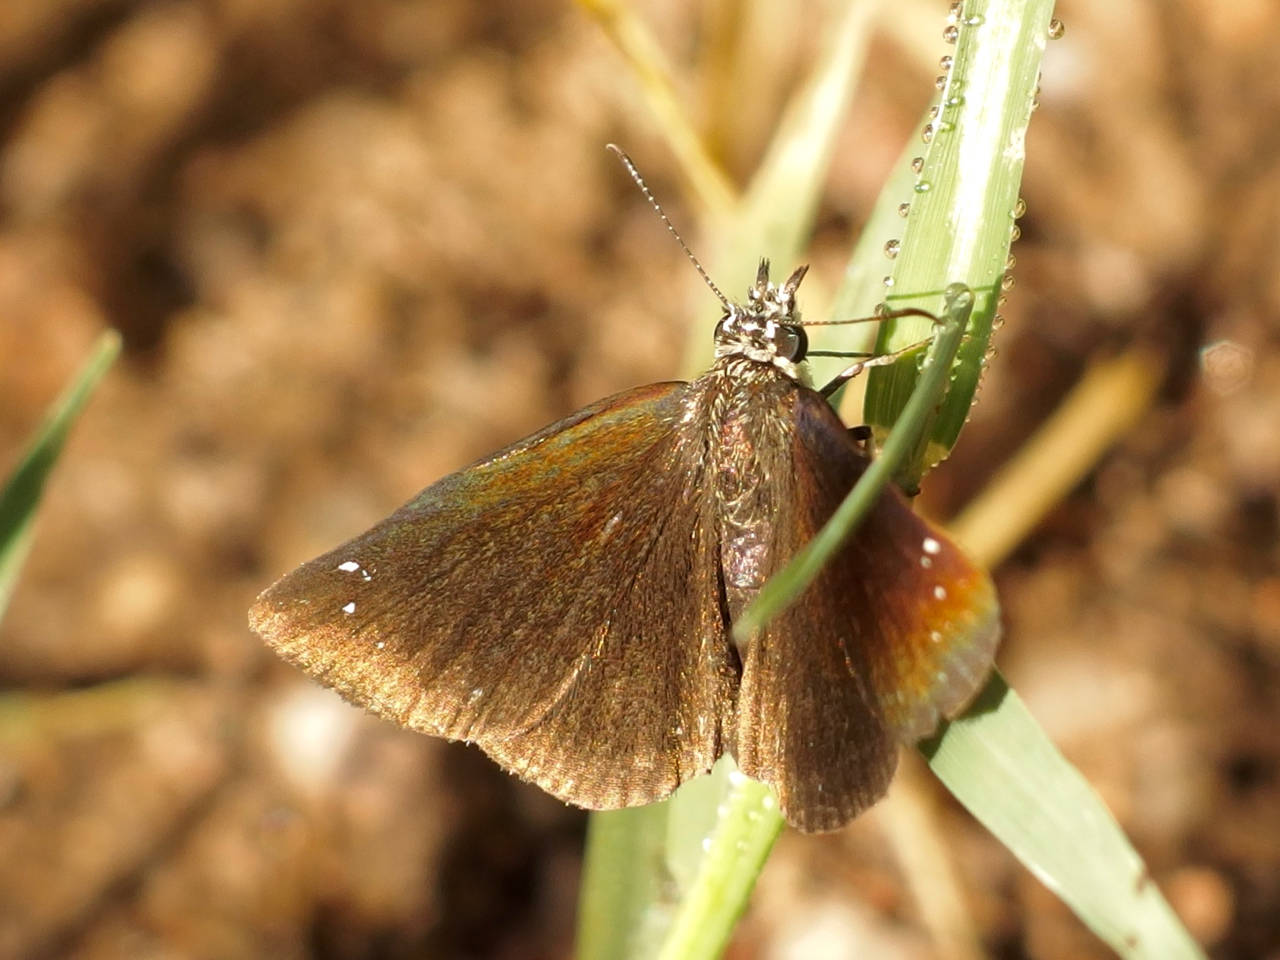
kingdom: Animalia
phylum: Arthropoda
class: Insecta
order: Lepidoptera
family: Hesperiidae
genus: Pholisora
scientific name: Pholisora catullus
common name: Common sootywing
